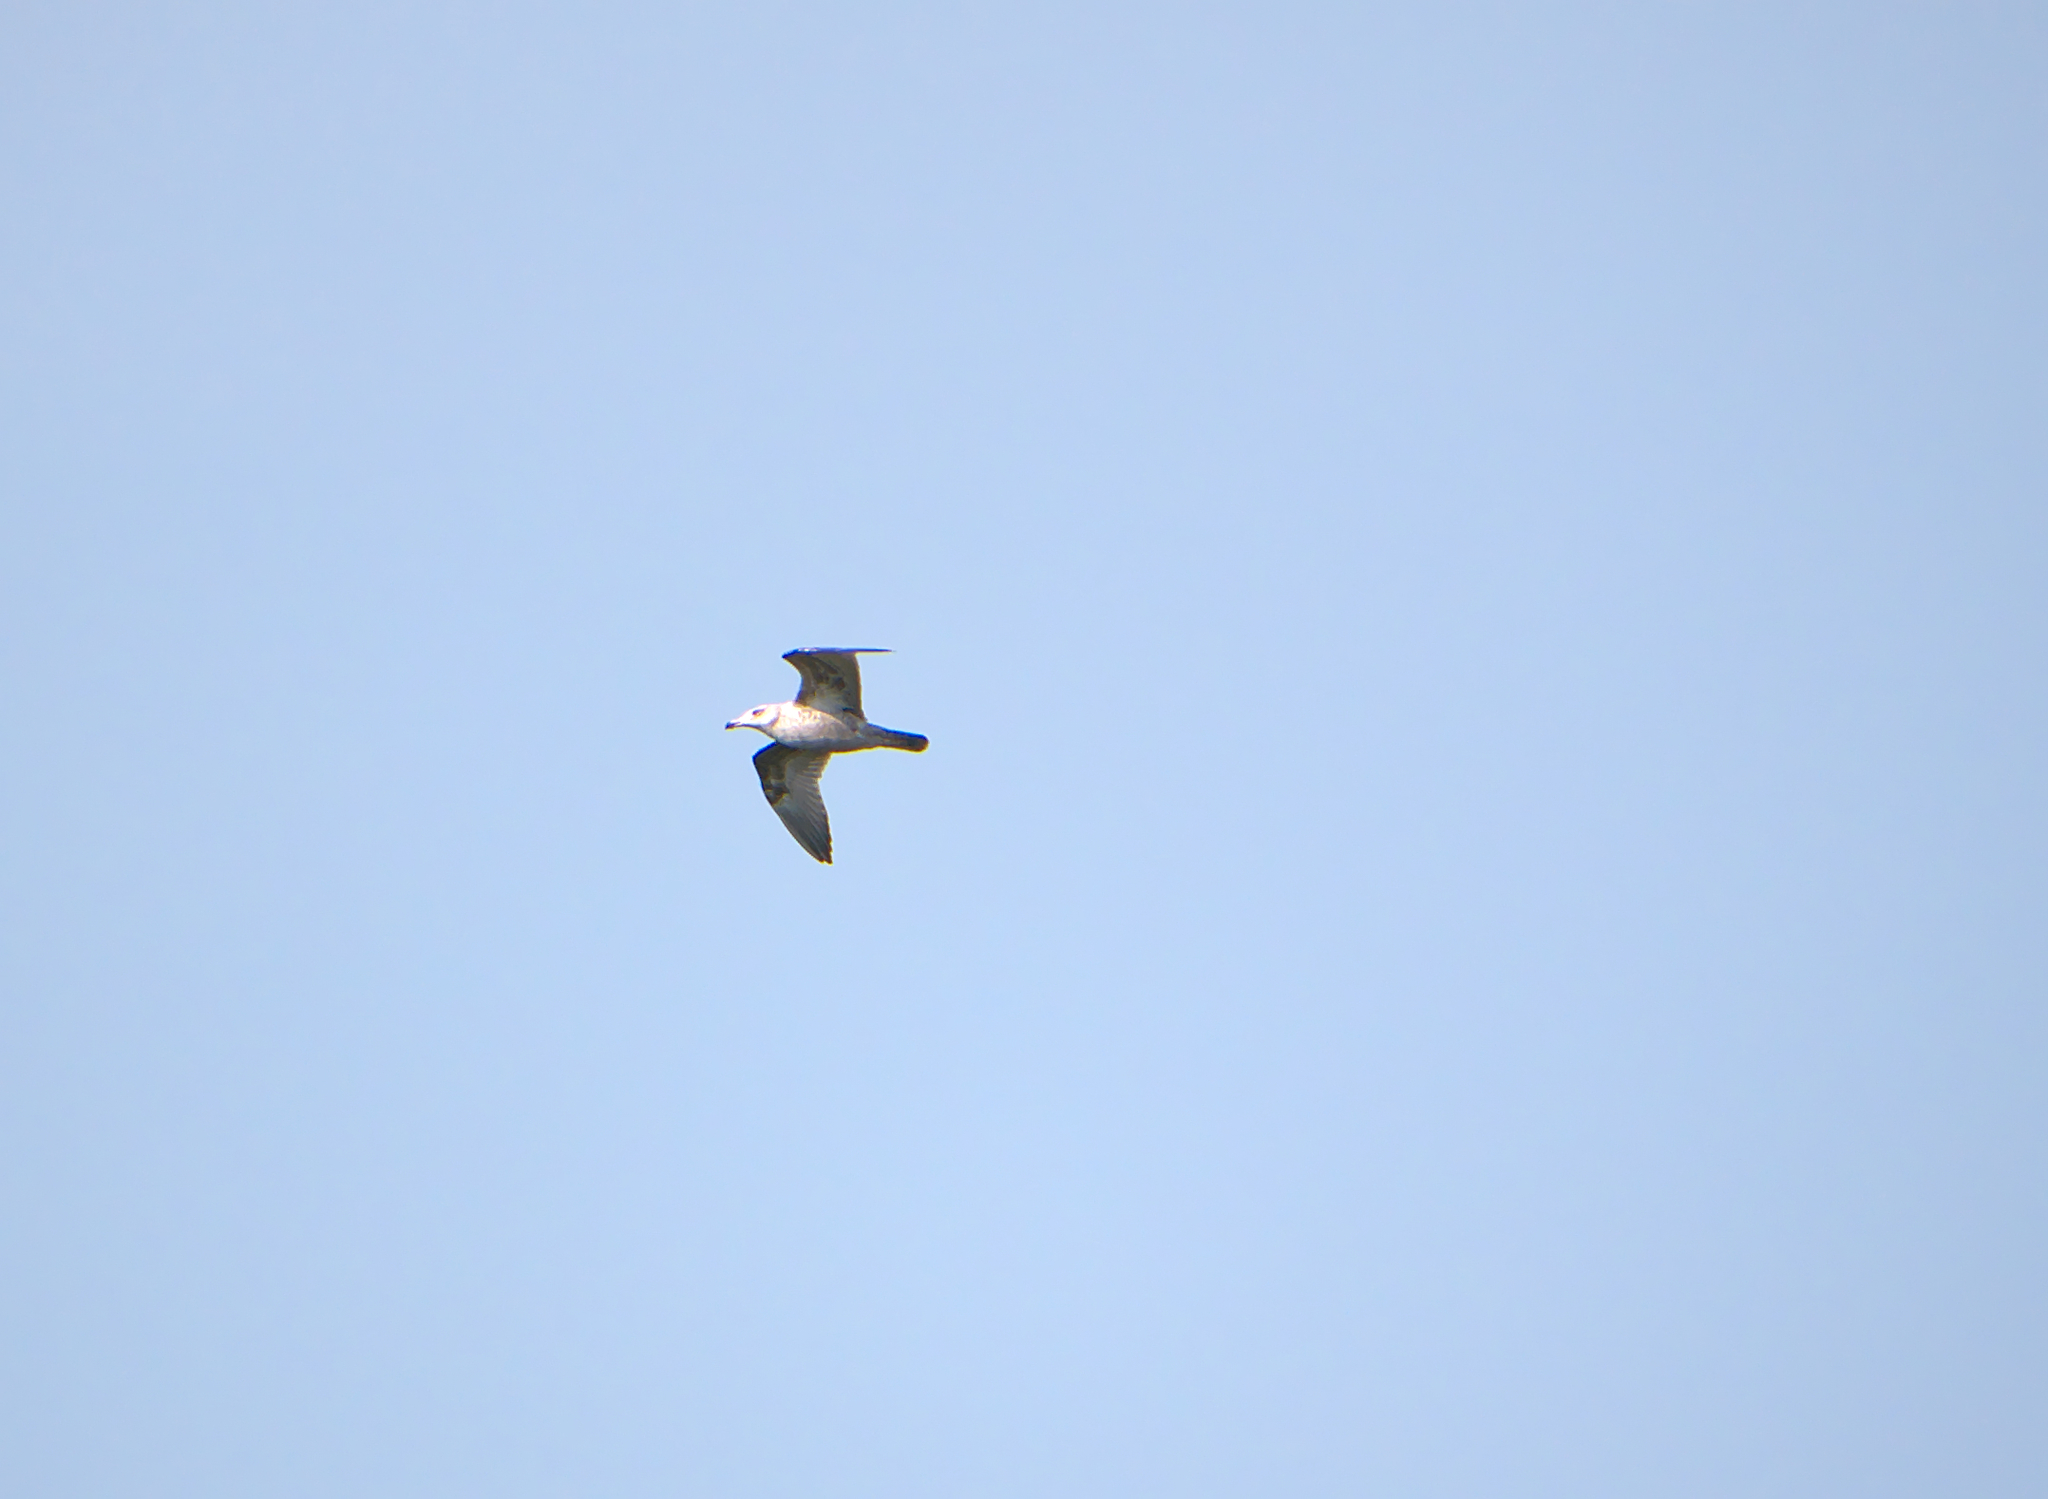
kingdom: Animalia
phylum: Chordata
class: Aves
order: Charadriiformes
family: Laridae
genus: Larus
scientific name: Larus delawarensis
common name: Ring-billed gull
